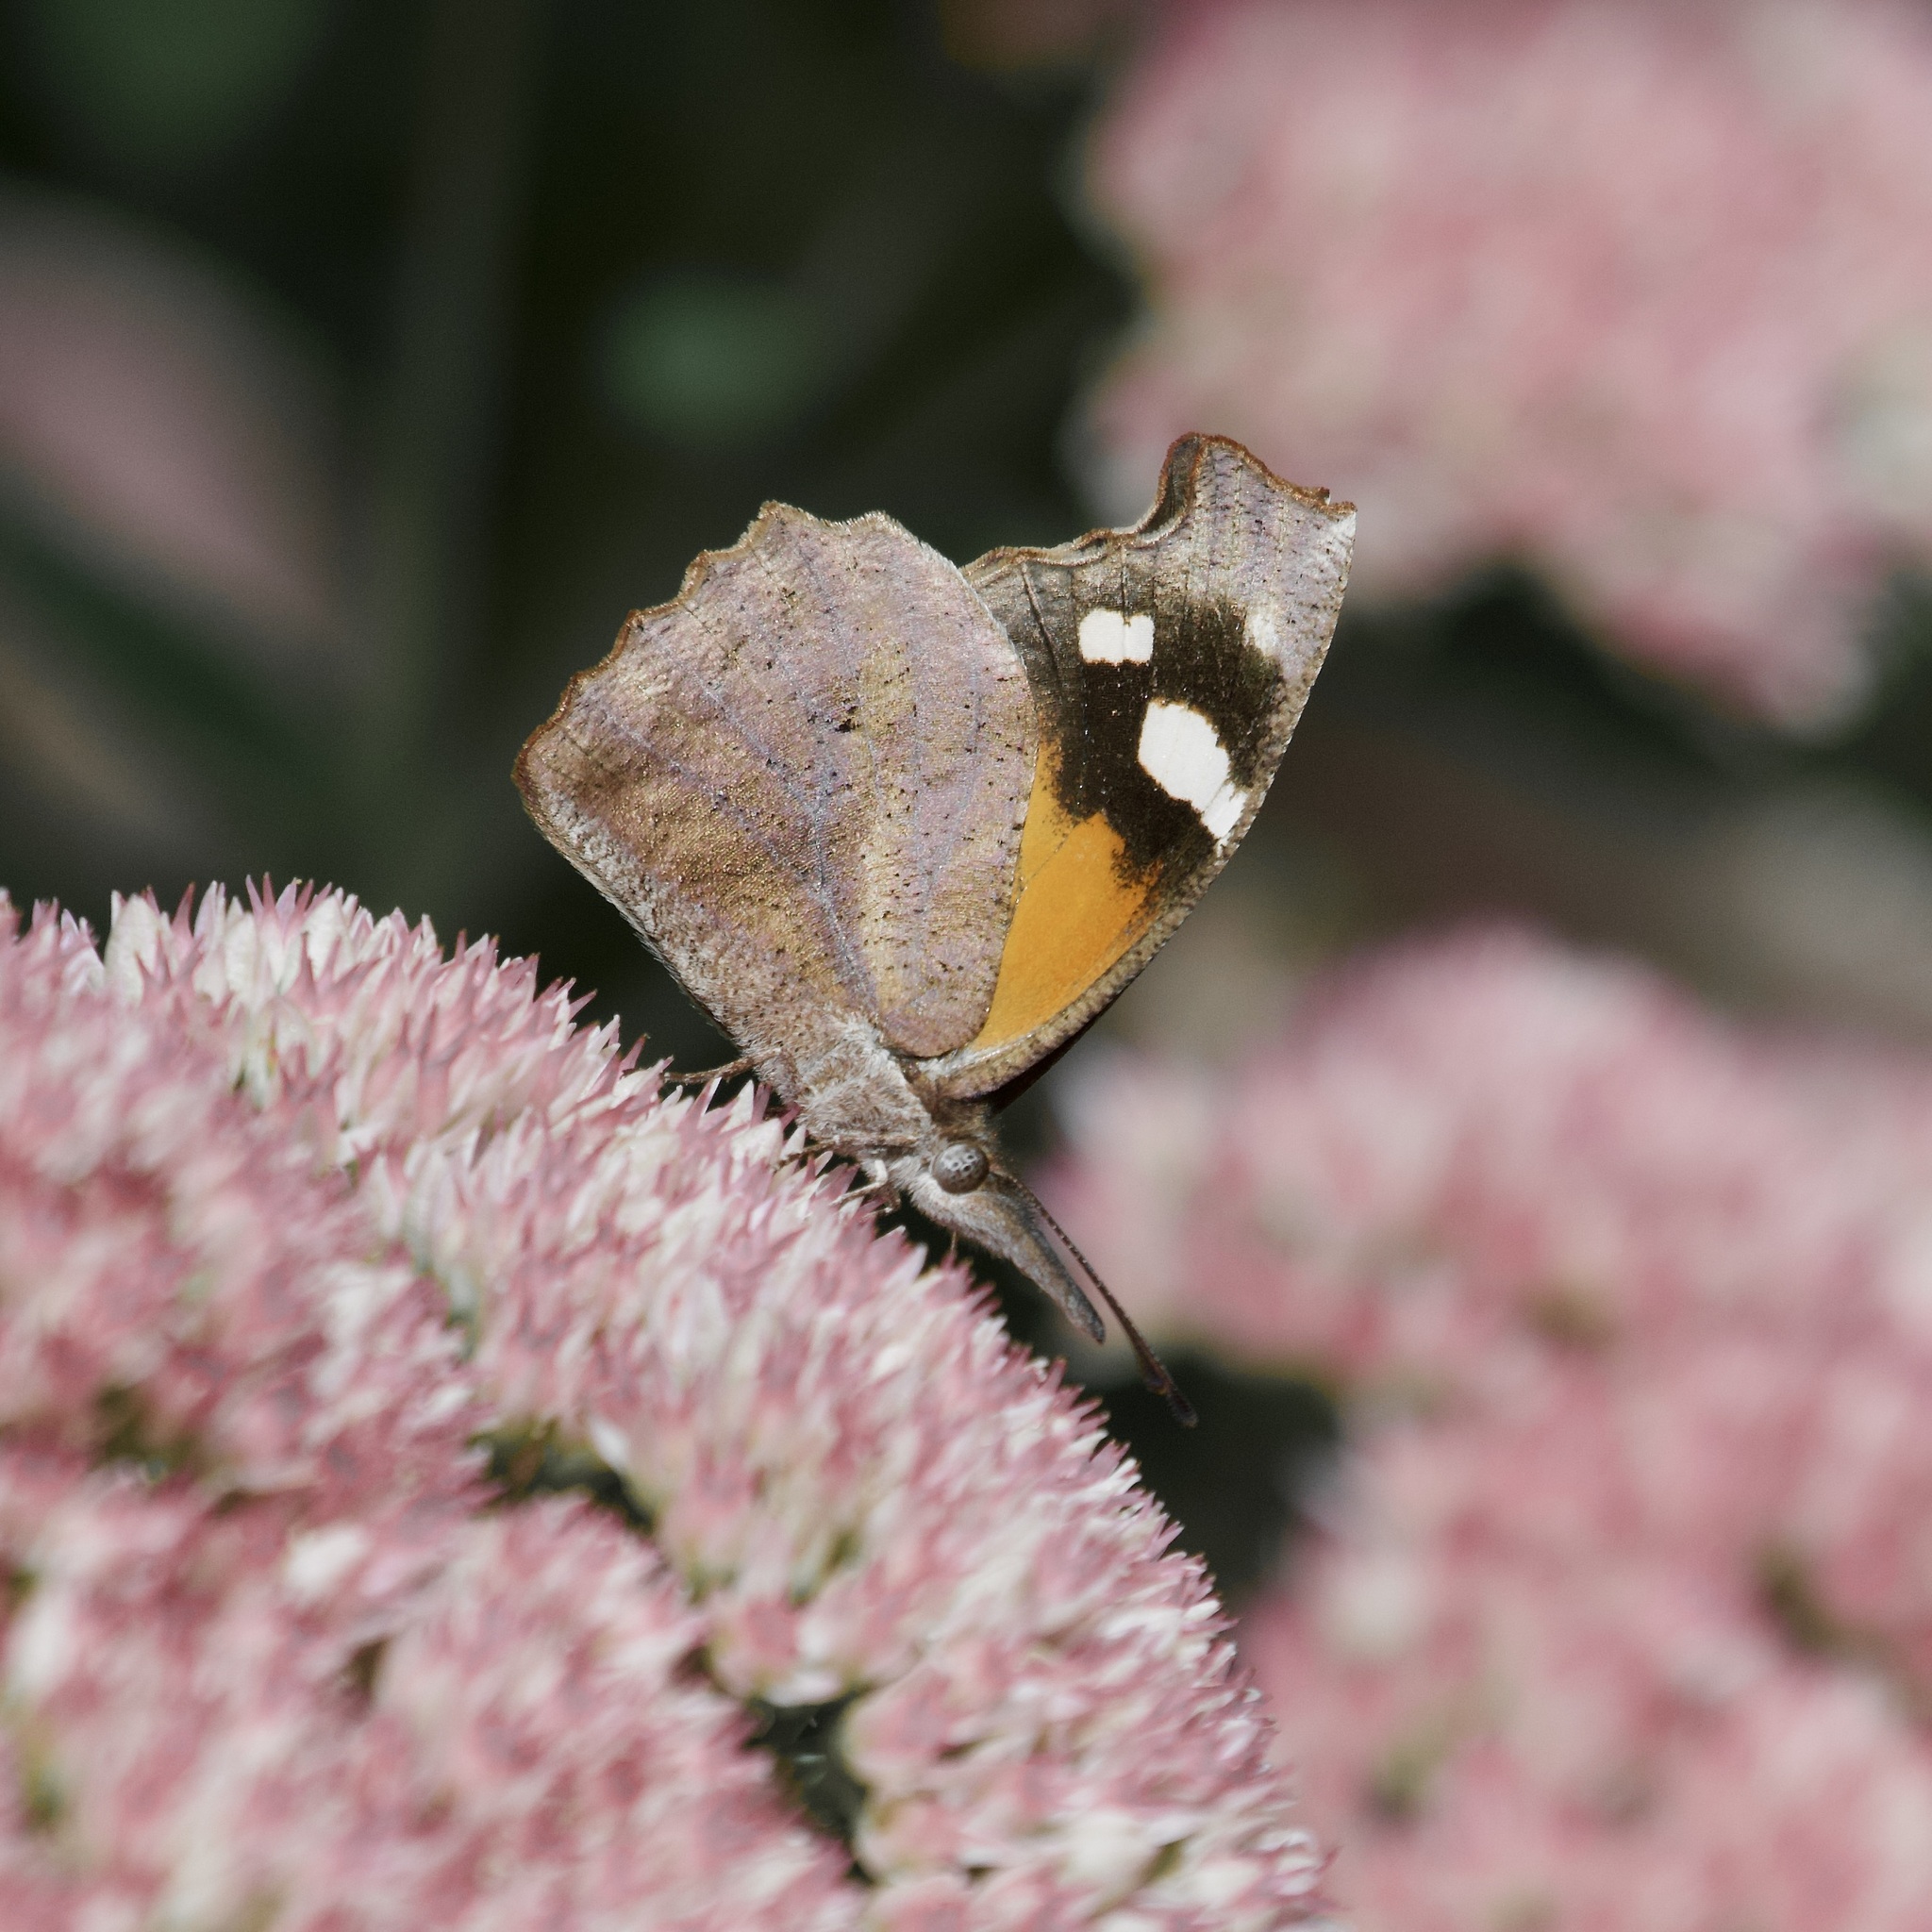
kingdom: Animalia
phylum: Arthropoda
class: Insecta
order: Lepidoptera
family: Nymphalidae
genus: Libytheana
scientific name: Libytheana carinenta
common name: American snout
